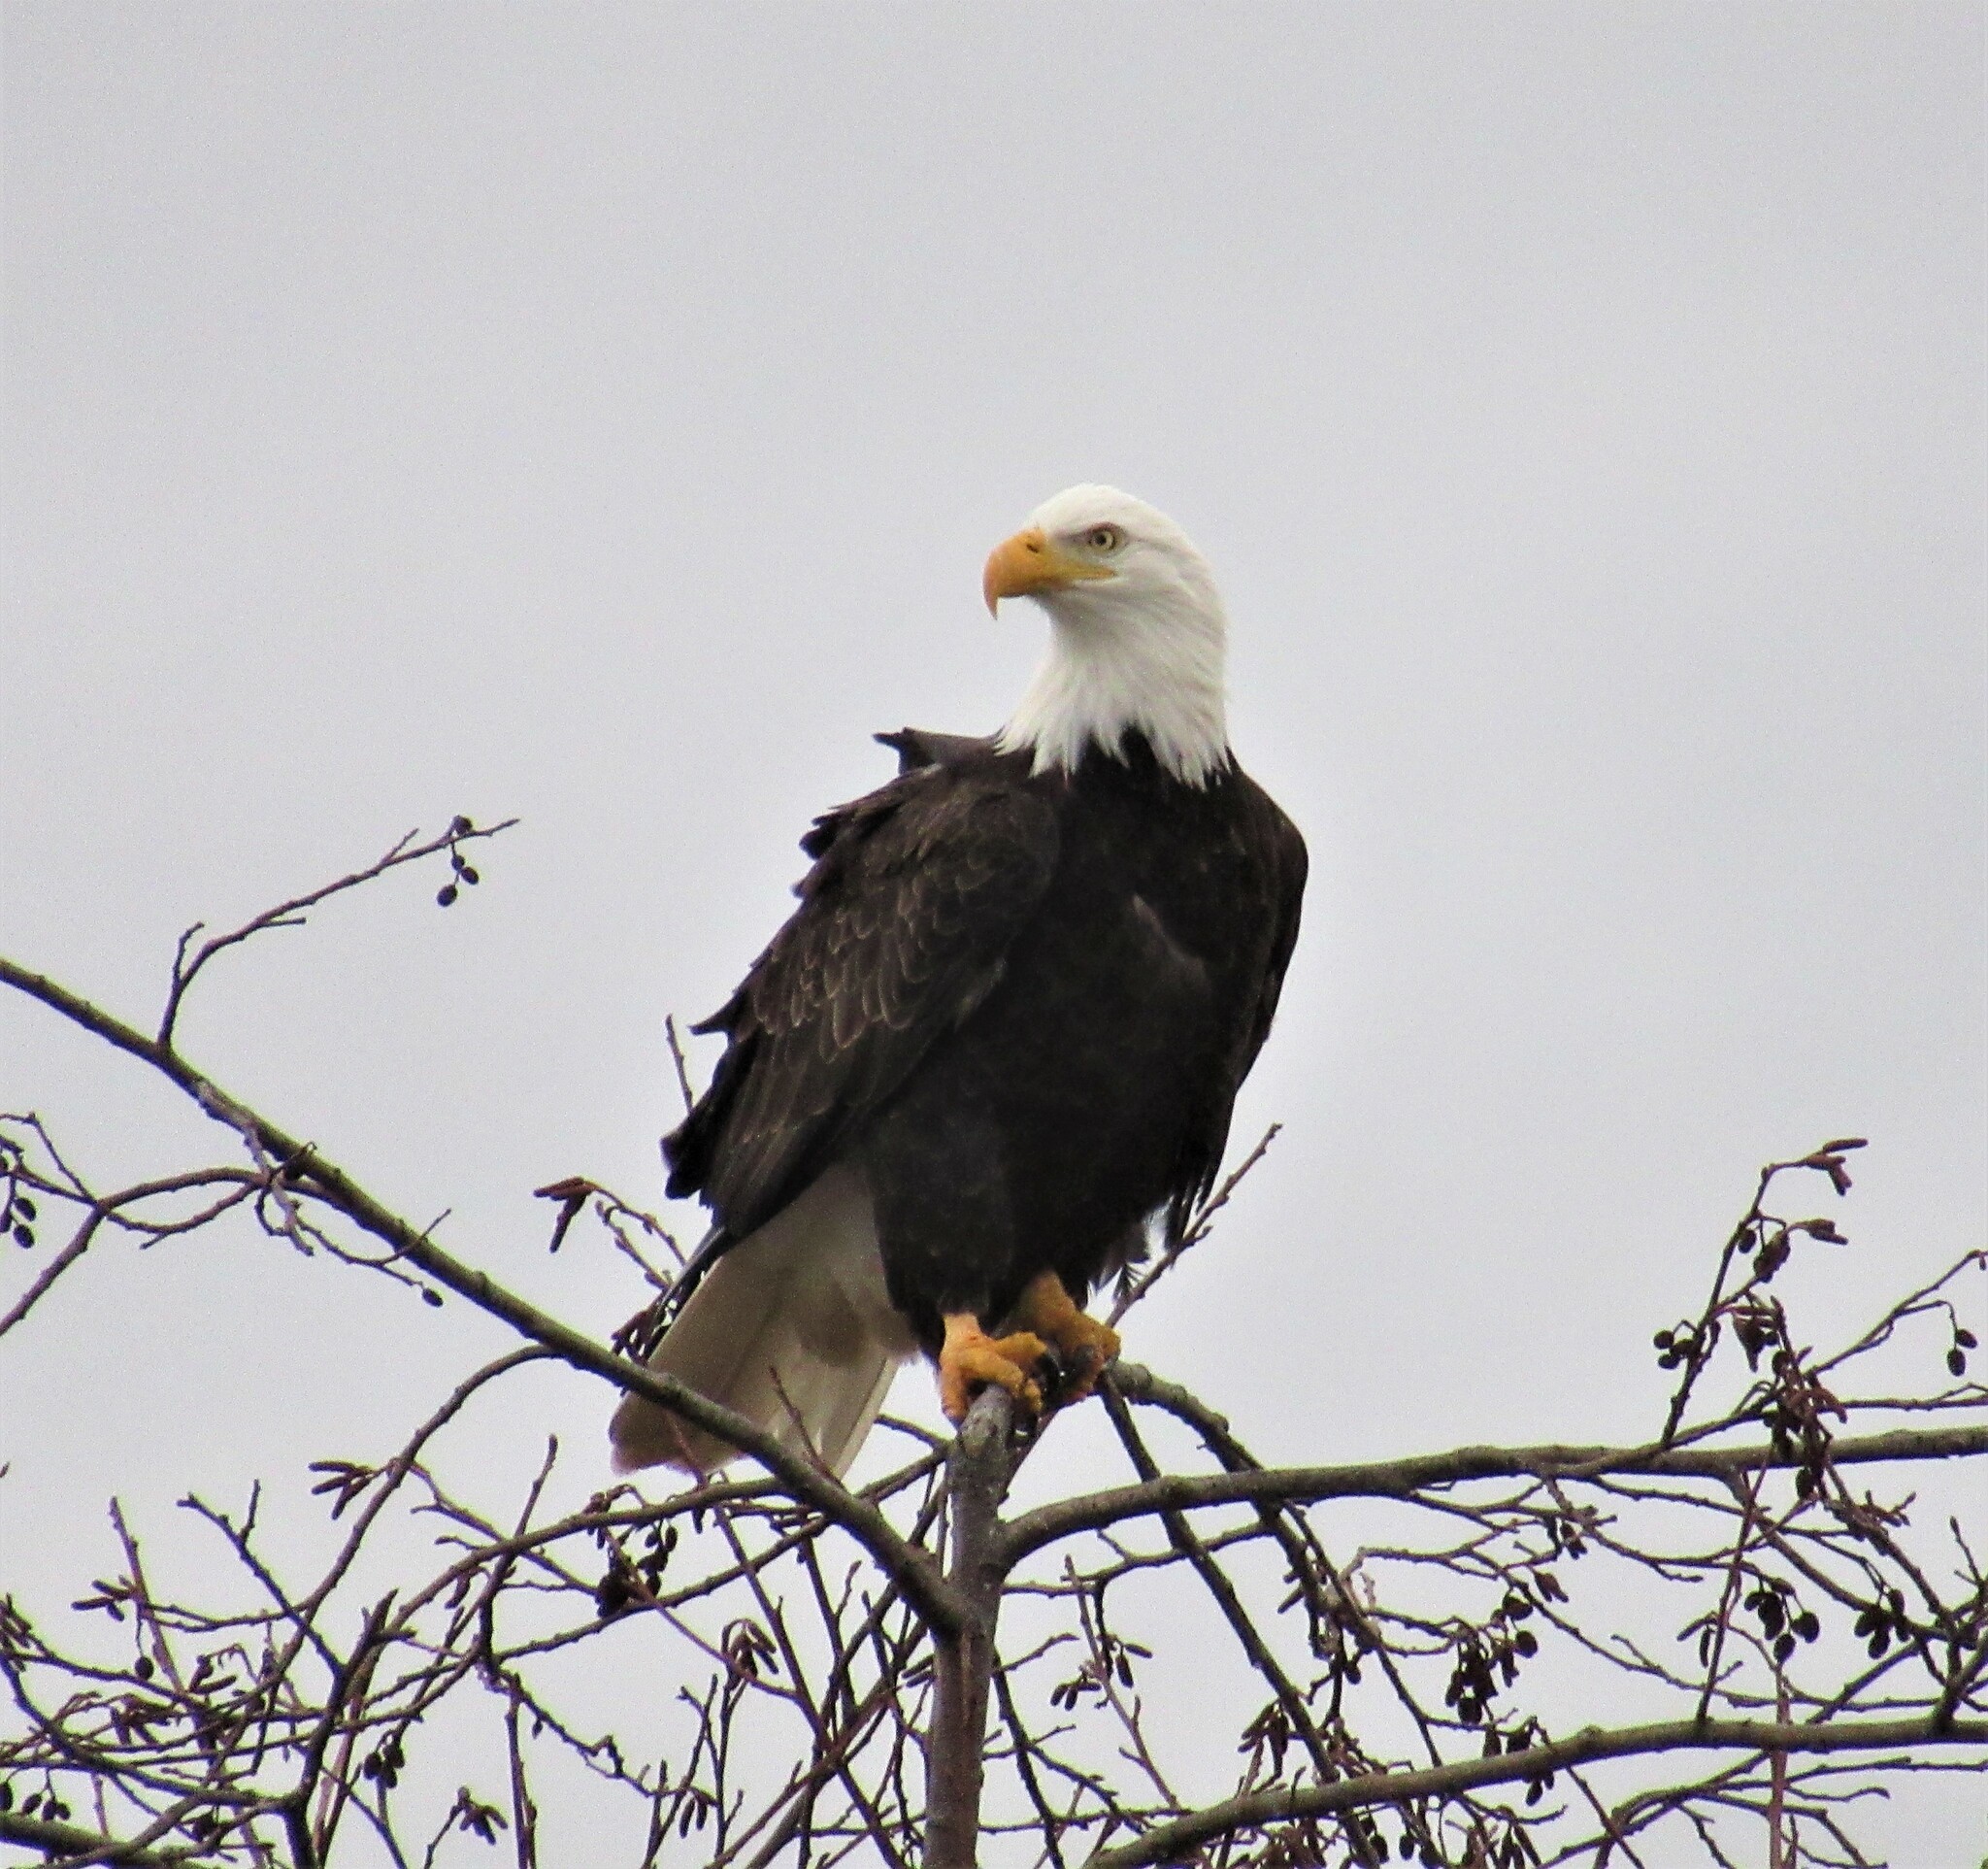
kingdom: Animalia
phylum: Chordata
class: Aves
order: Accipitriformes
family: Accipitridae
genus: Haliaeetus
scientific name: Haliaeetus leucocephalus
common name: Bald eagle
